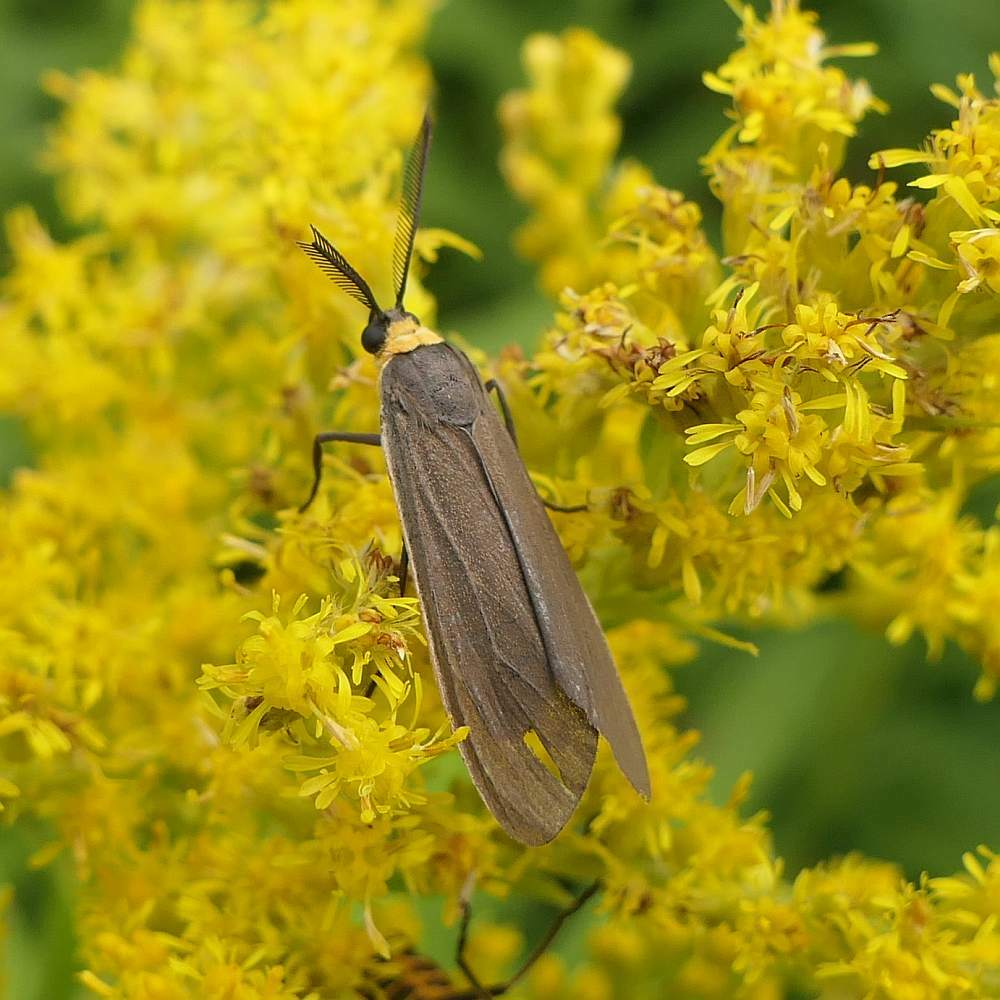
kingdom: Animalia
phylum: Arthropoda
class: Insecta
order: Lepidoptera
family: Erebidae
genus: Cisseps
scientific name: Cisseps fulvicollis
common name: Yellow-collared scape moth
